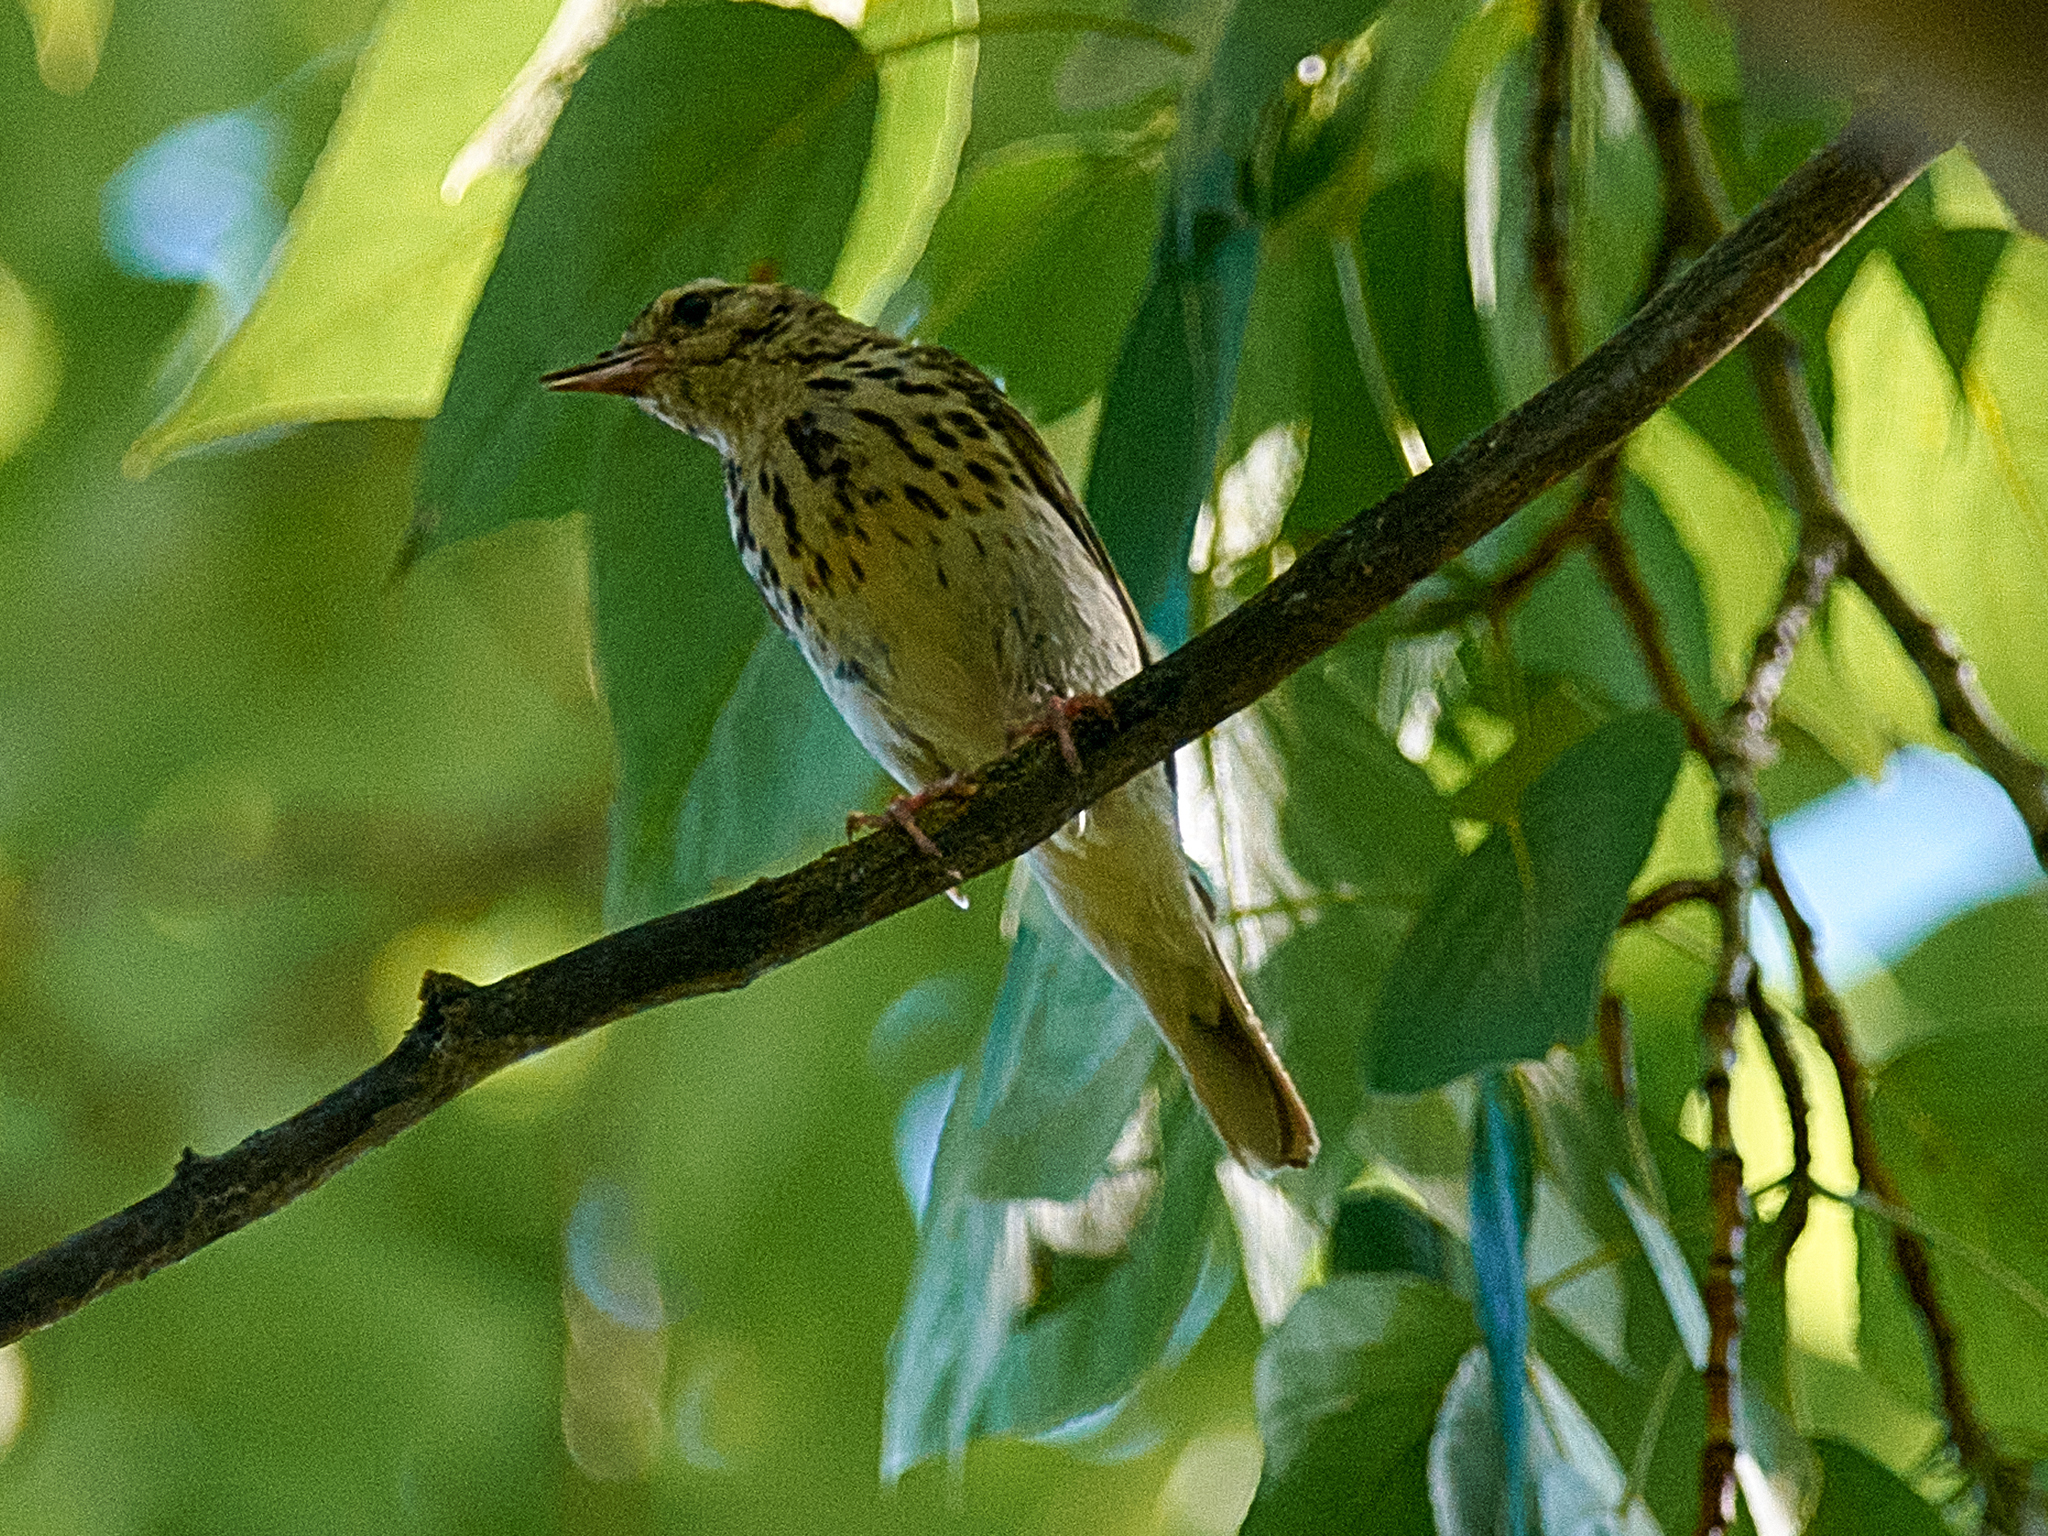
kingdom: Animalia
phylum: Chordata
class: Aves
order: Passeriformes
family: Motacillidae
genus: Anthus
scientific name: Anthus trivialis
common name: Tree pipit
